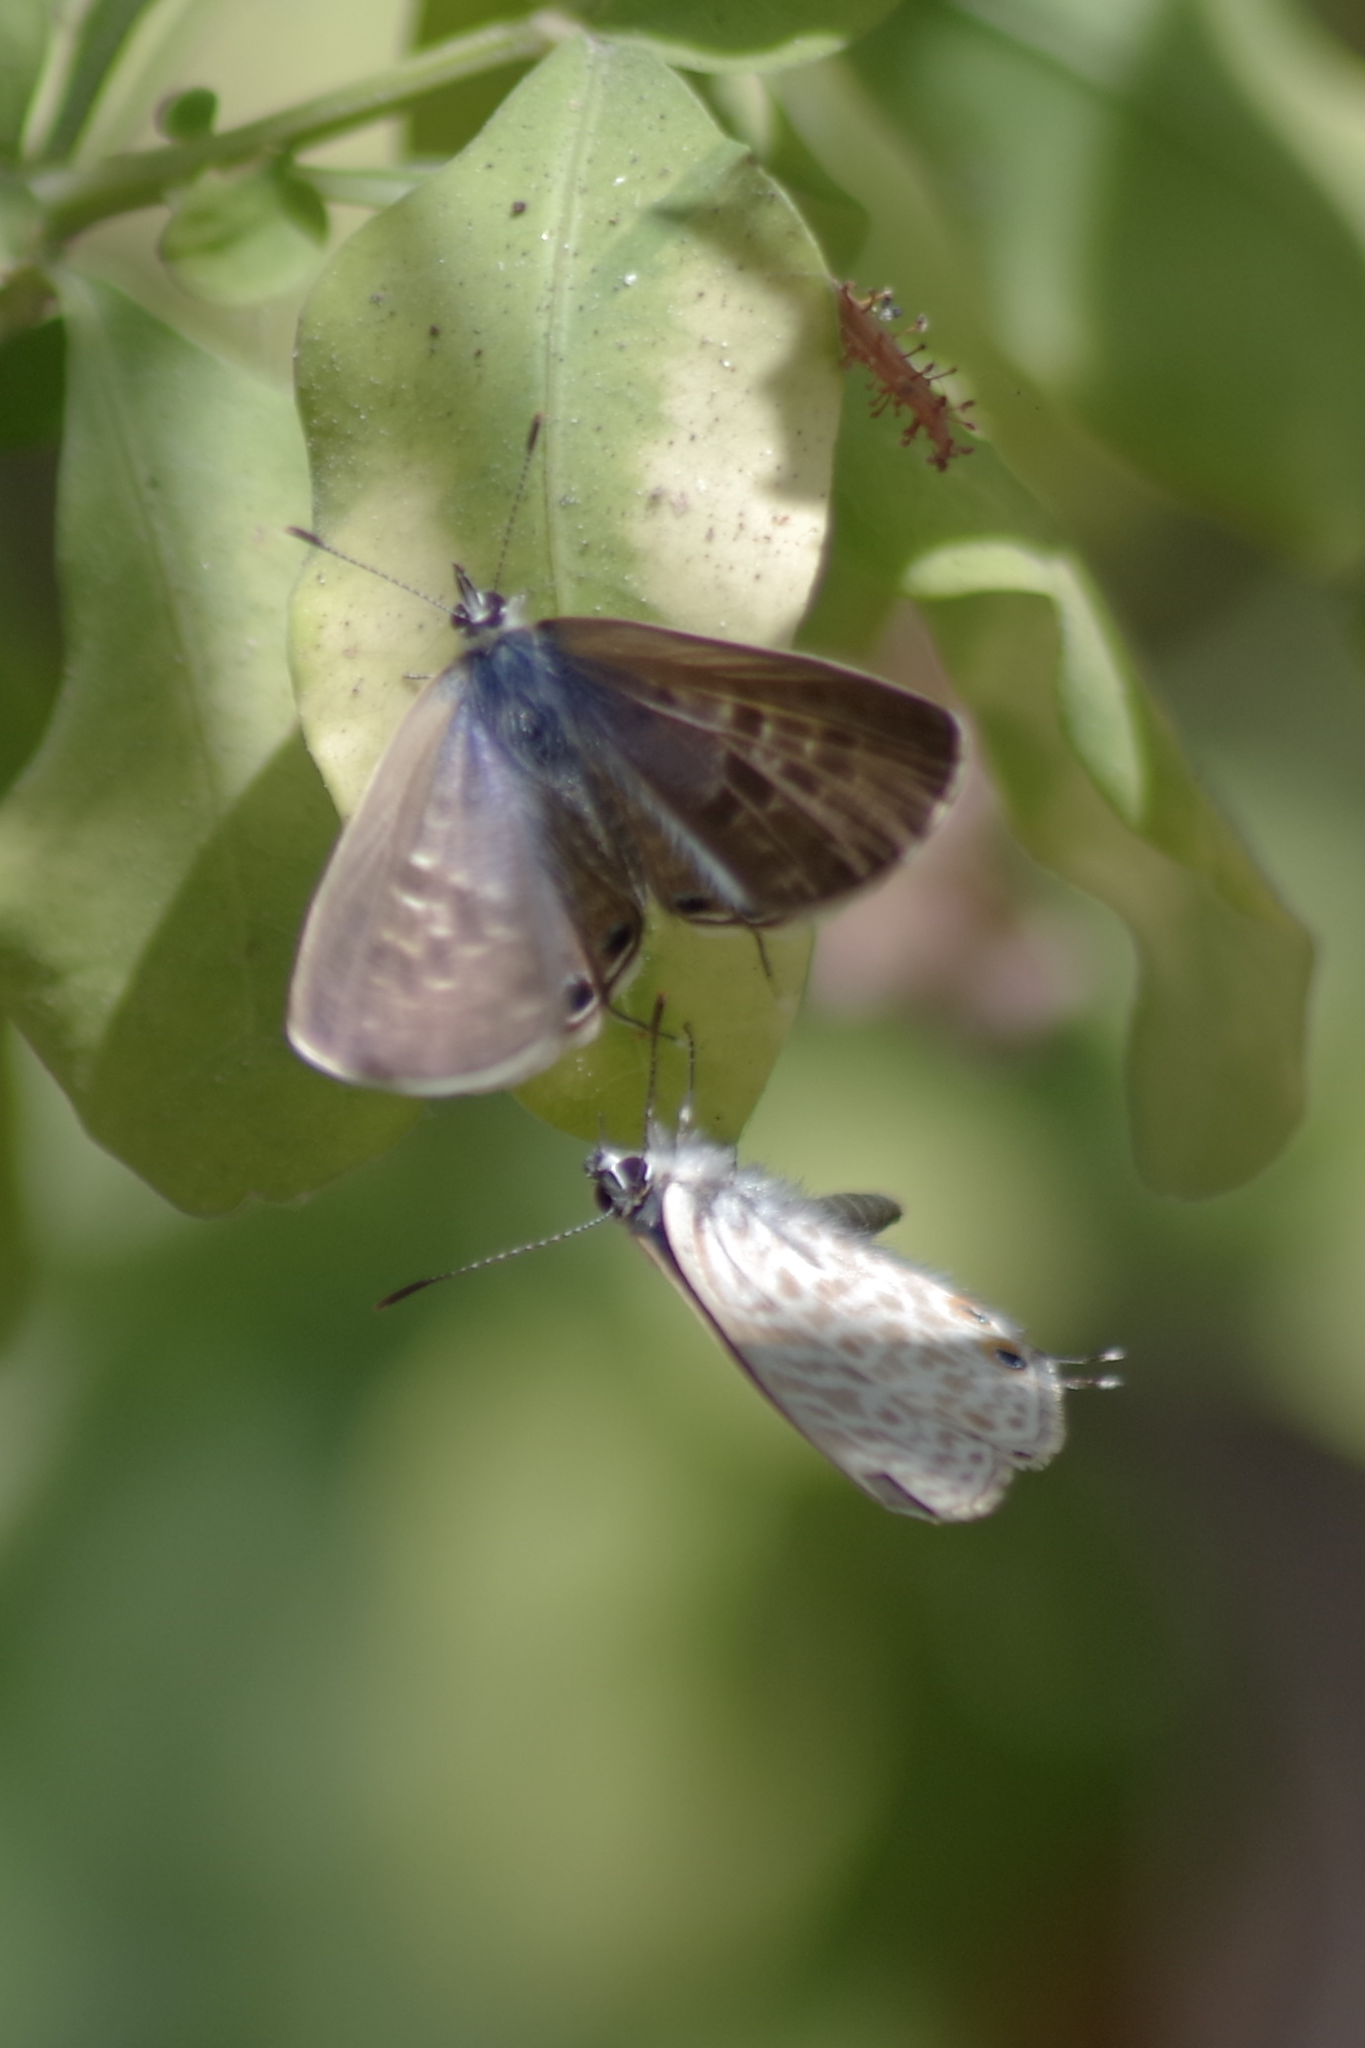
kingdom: Animalia
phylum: Arthropoda
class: Insecta
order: Lepidoptera
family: Lycaenidae
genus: Leptotes
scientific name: Leptotes pirithous
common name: Lang's short-tailed blue
